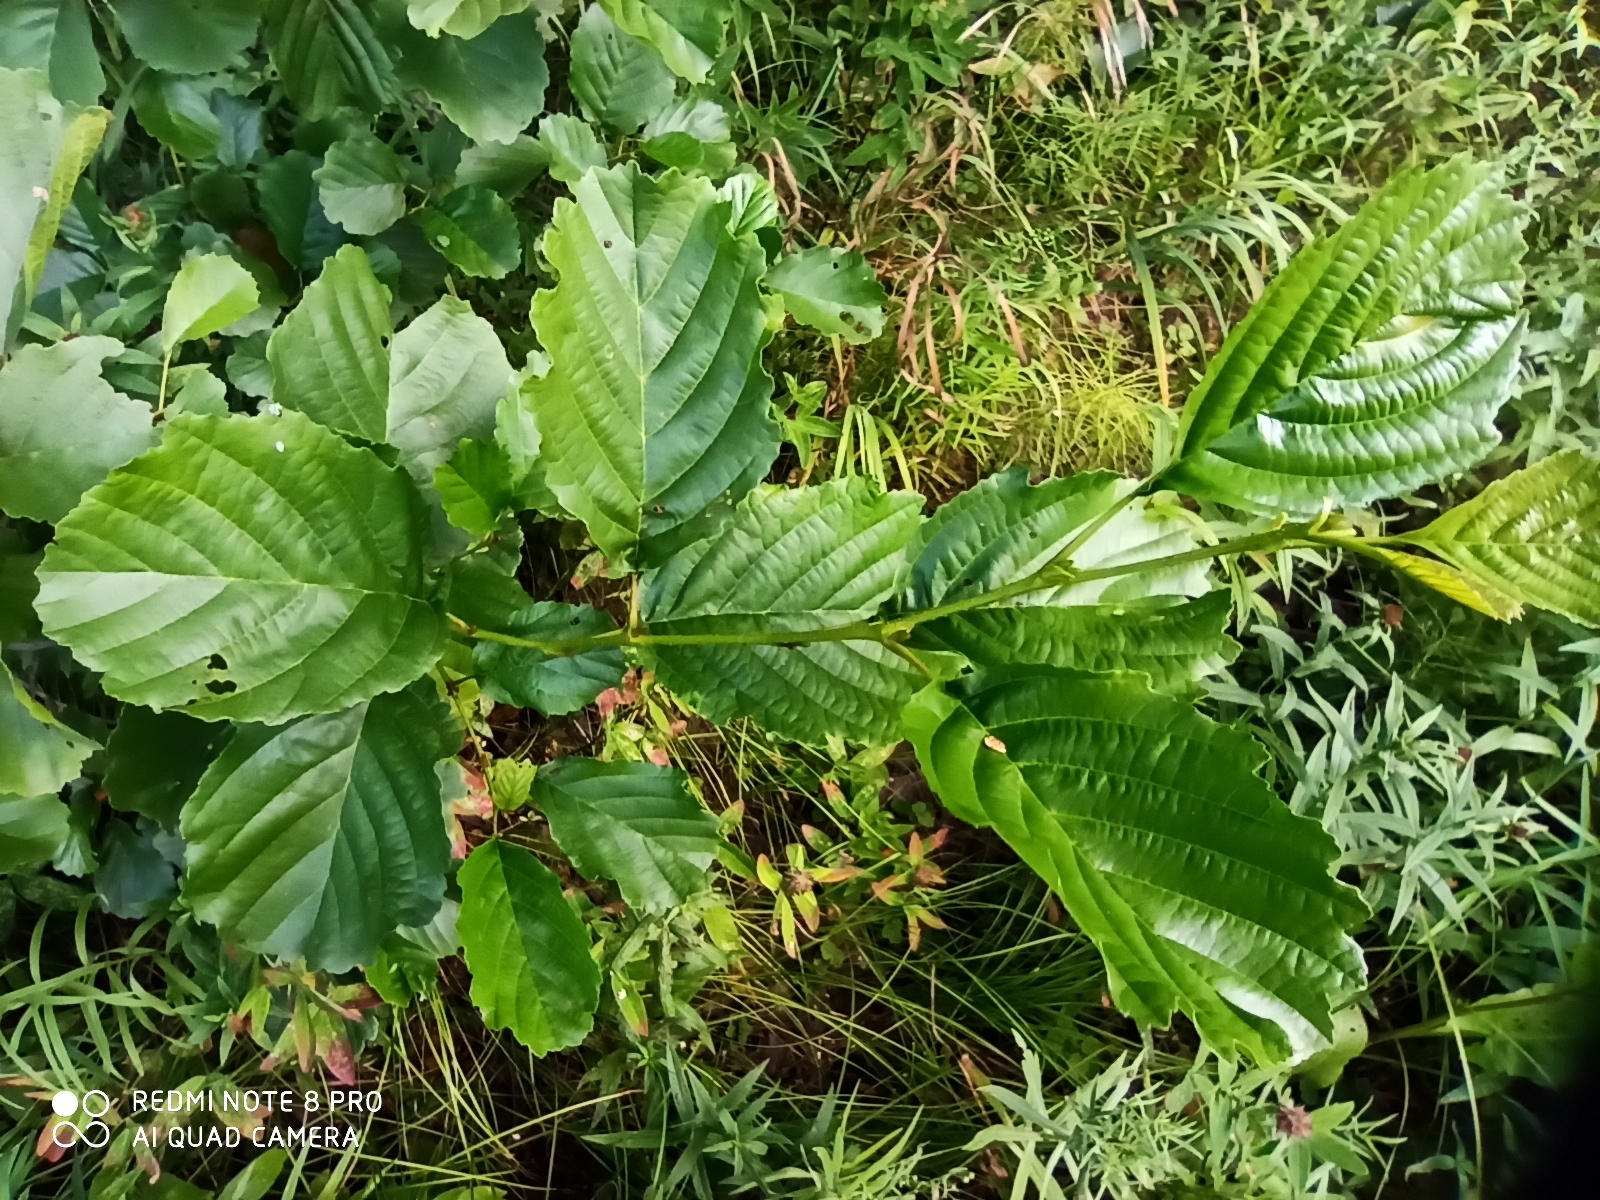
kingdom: Plantae
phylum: Tracheophyta
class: Magnoliopsida
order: Fagales
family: Betulaceae
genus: Alnus
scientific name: Alnus glutinosa
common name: Black alder
